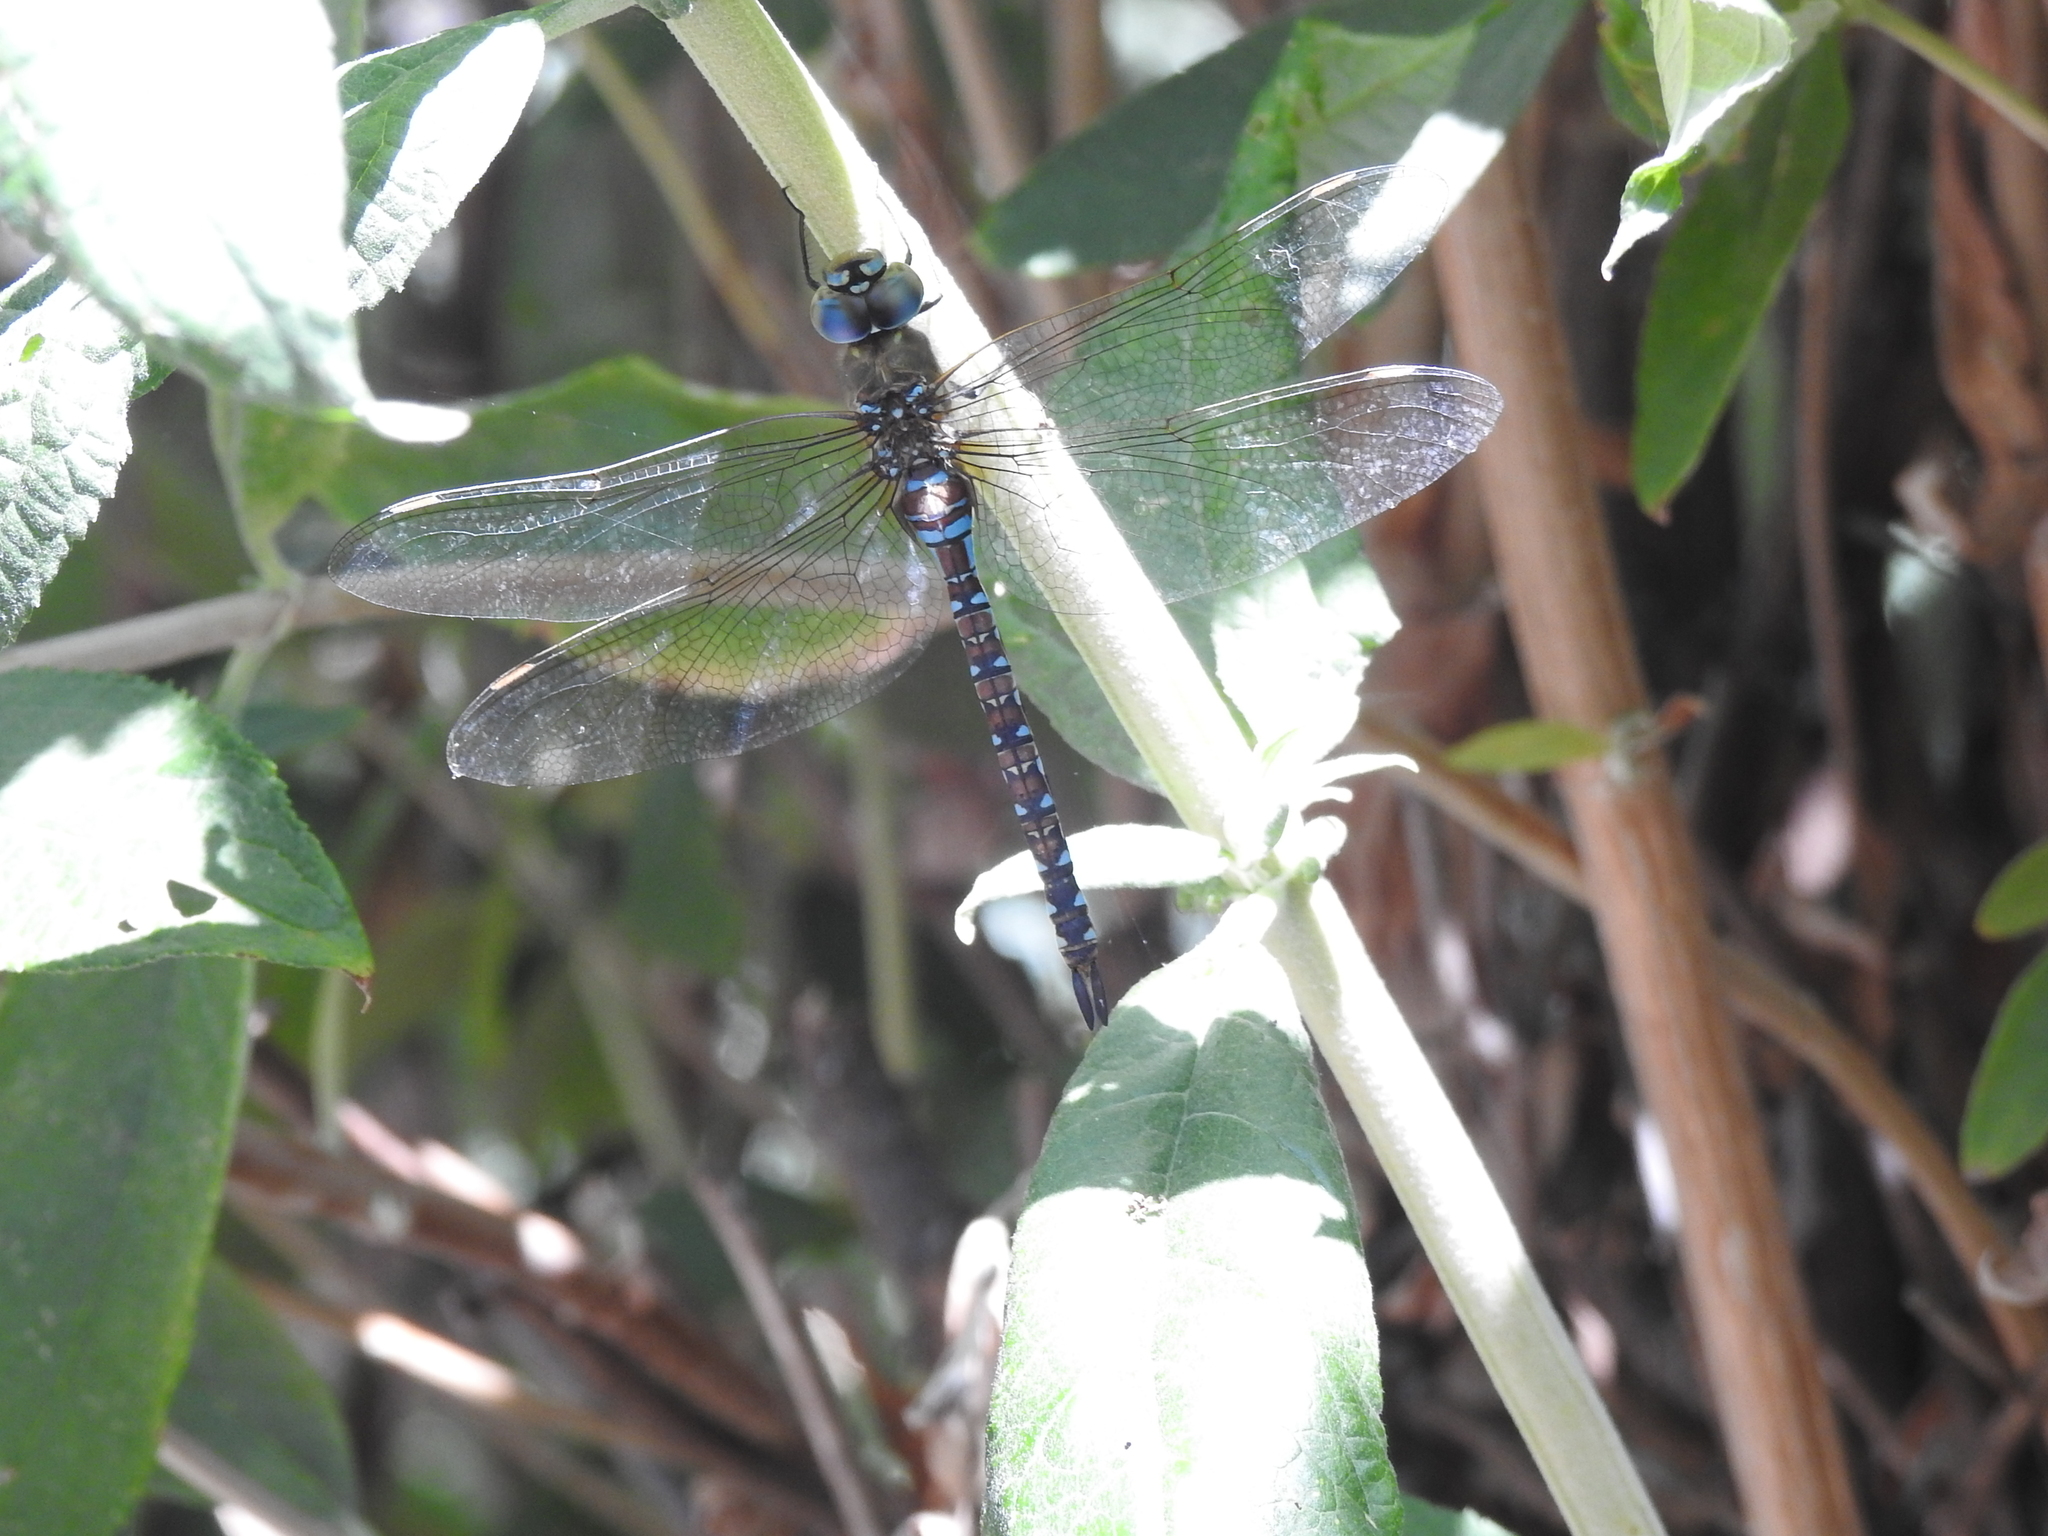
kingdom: Animalia
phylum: Arthropoda
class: Insecta
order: Odonata
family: Aeshnidae
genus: Rhionaeschna
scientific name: Rhionaeschna multicolor
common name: Blue-eyed darner
